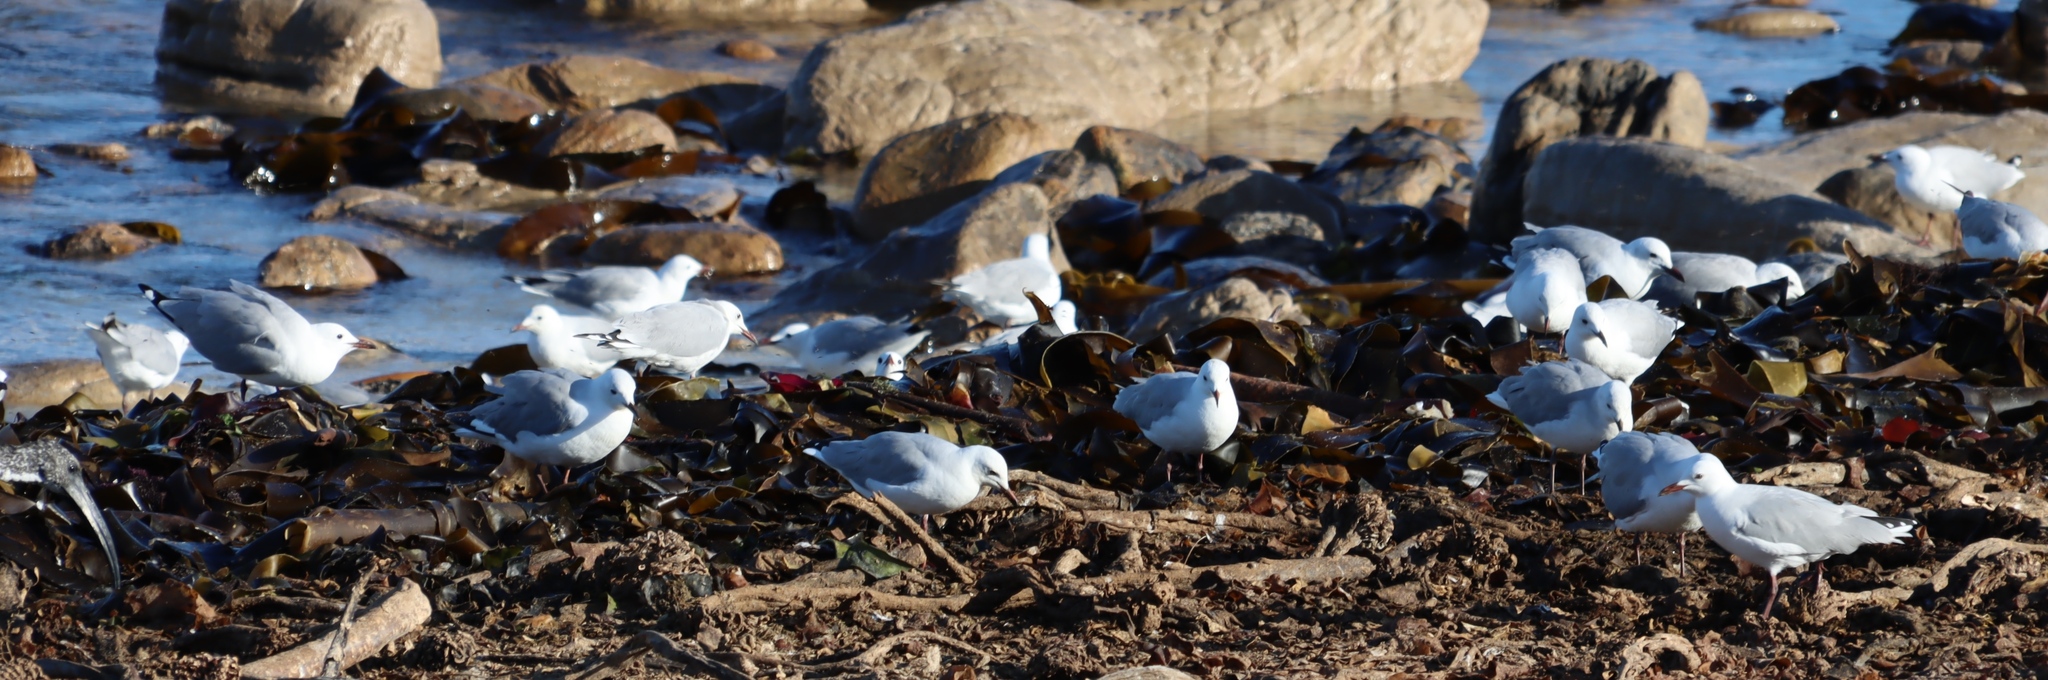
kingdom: Animalia
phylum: Chordata
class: Aves
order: Charadriiformes
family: Laridae
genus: Chroicocephalus
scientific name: Chroicocephalus hartlaubii
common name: Hartlaub's gull
